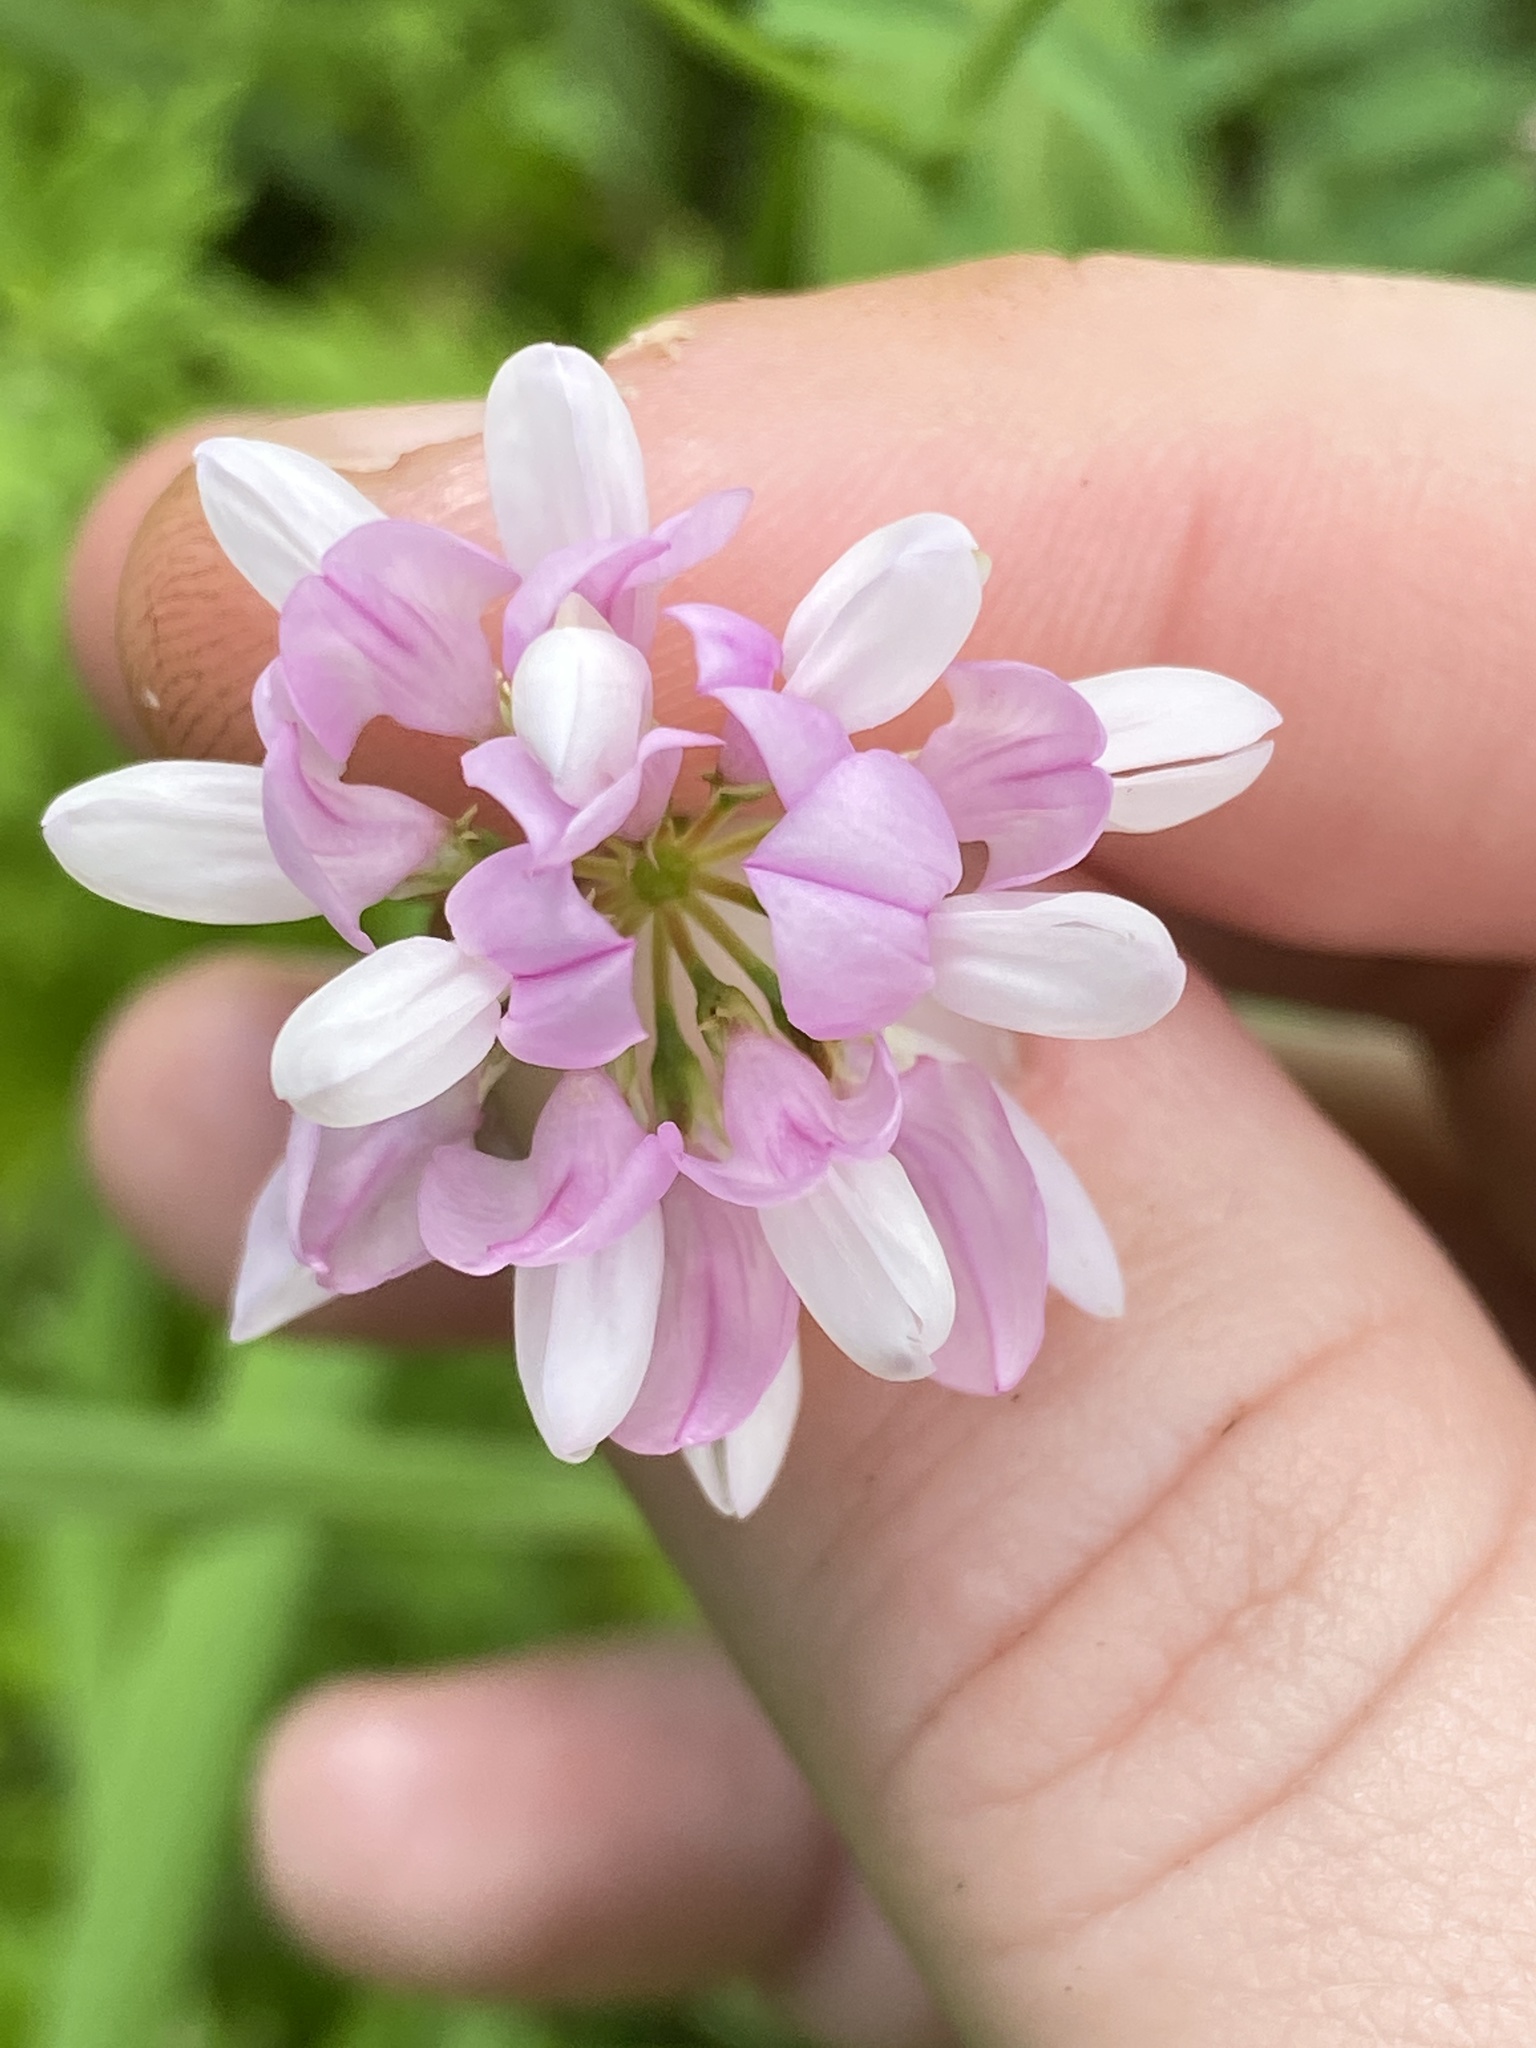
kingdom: Plantae
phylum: Tracheophyta
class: Magnoliopsida
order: Fabales
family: Fabaceae
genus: Coronilla
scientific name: Coronilla varia
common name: Crownvetch
